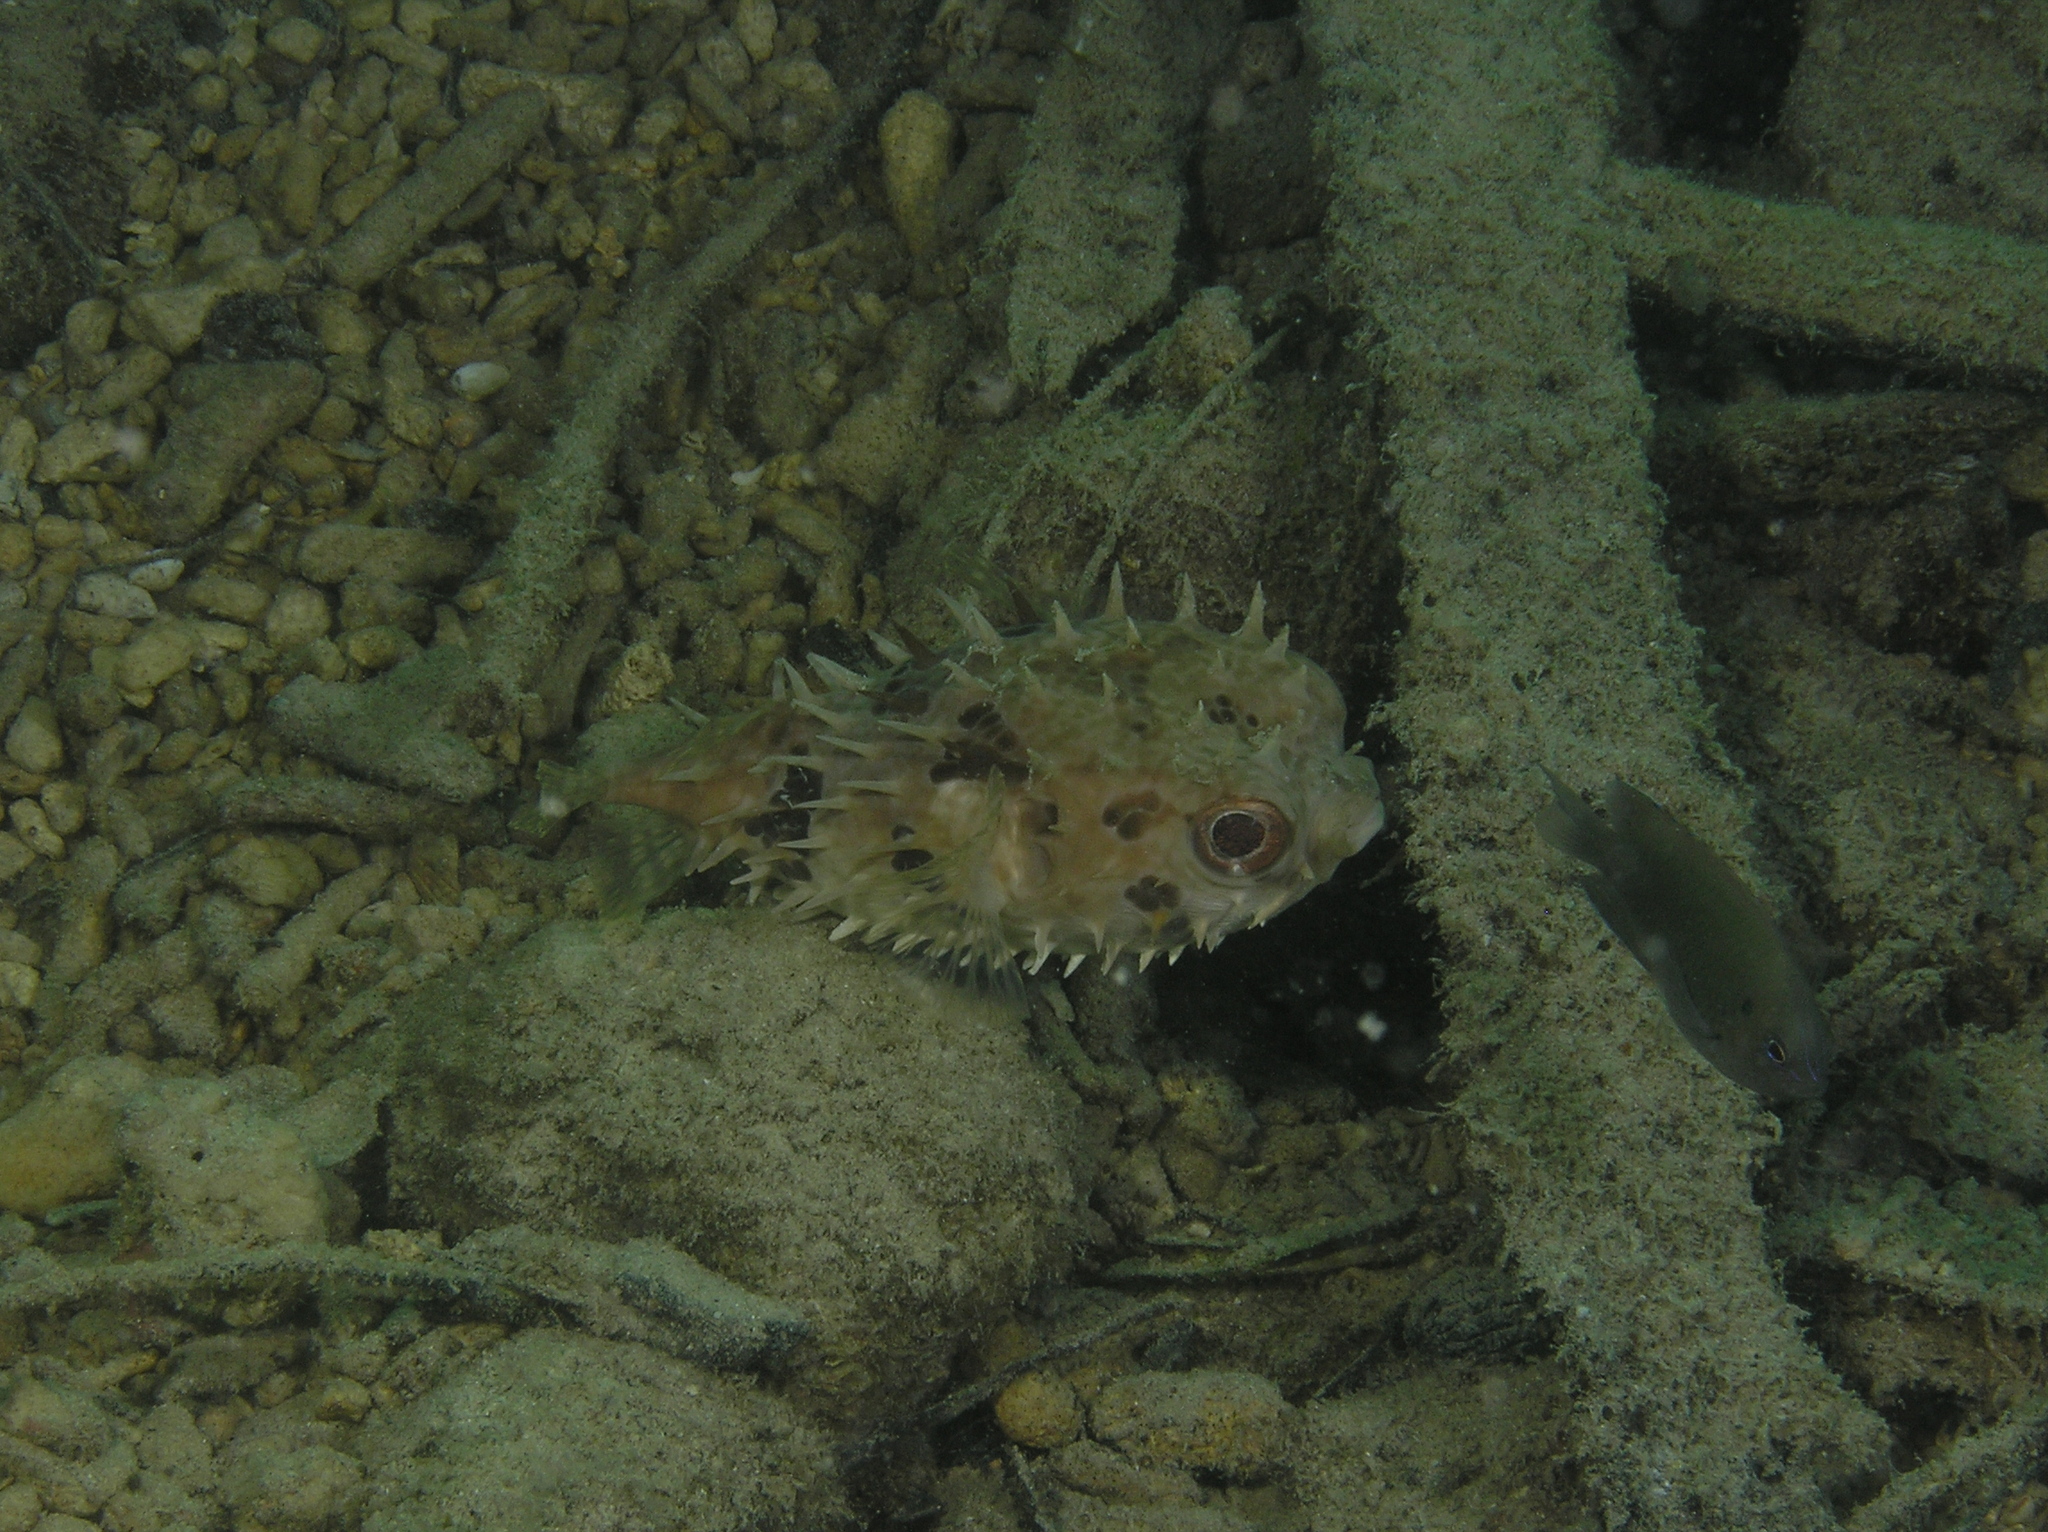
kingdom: Animalia
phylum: Chordata
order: Tetraodontiformes
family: Diodontidae
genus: Cyclichthys
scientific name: Cyclichthys orbicularis
